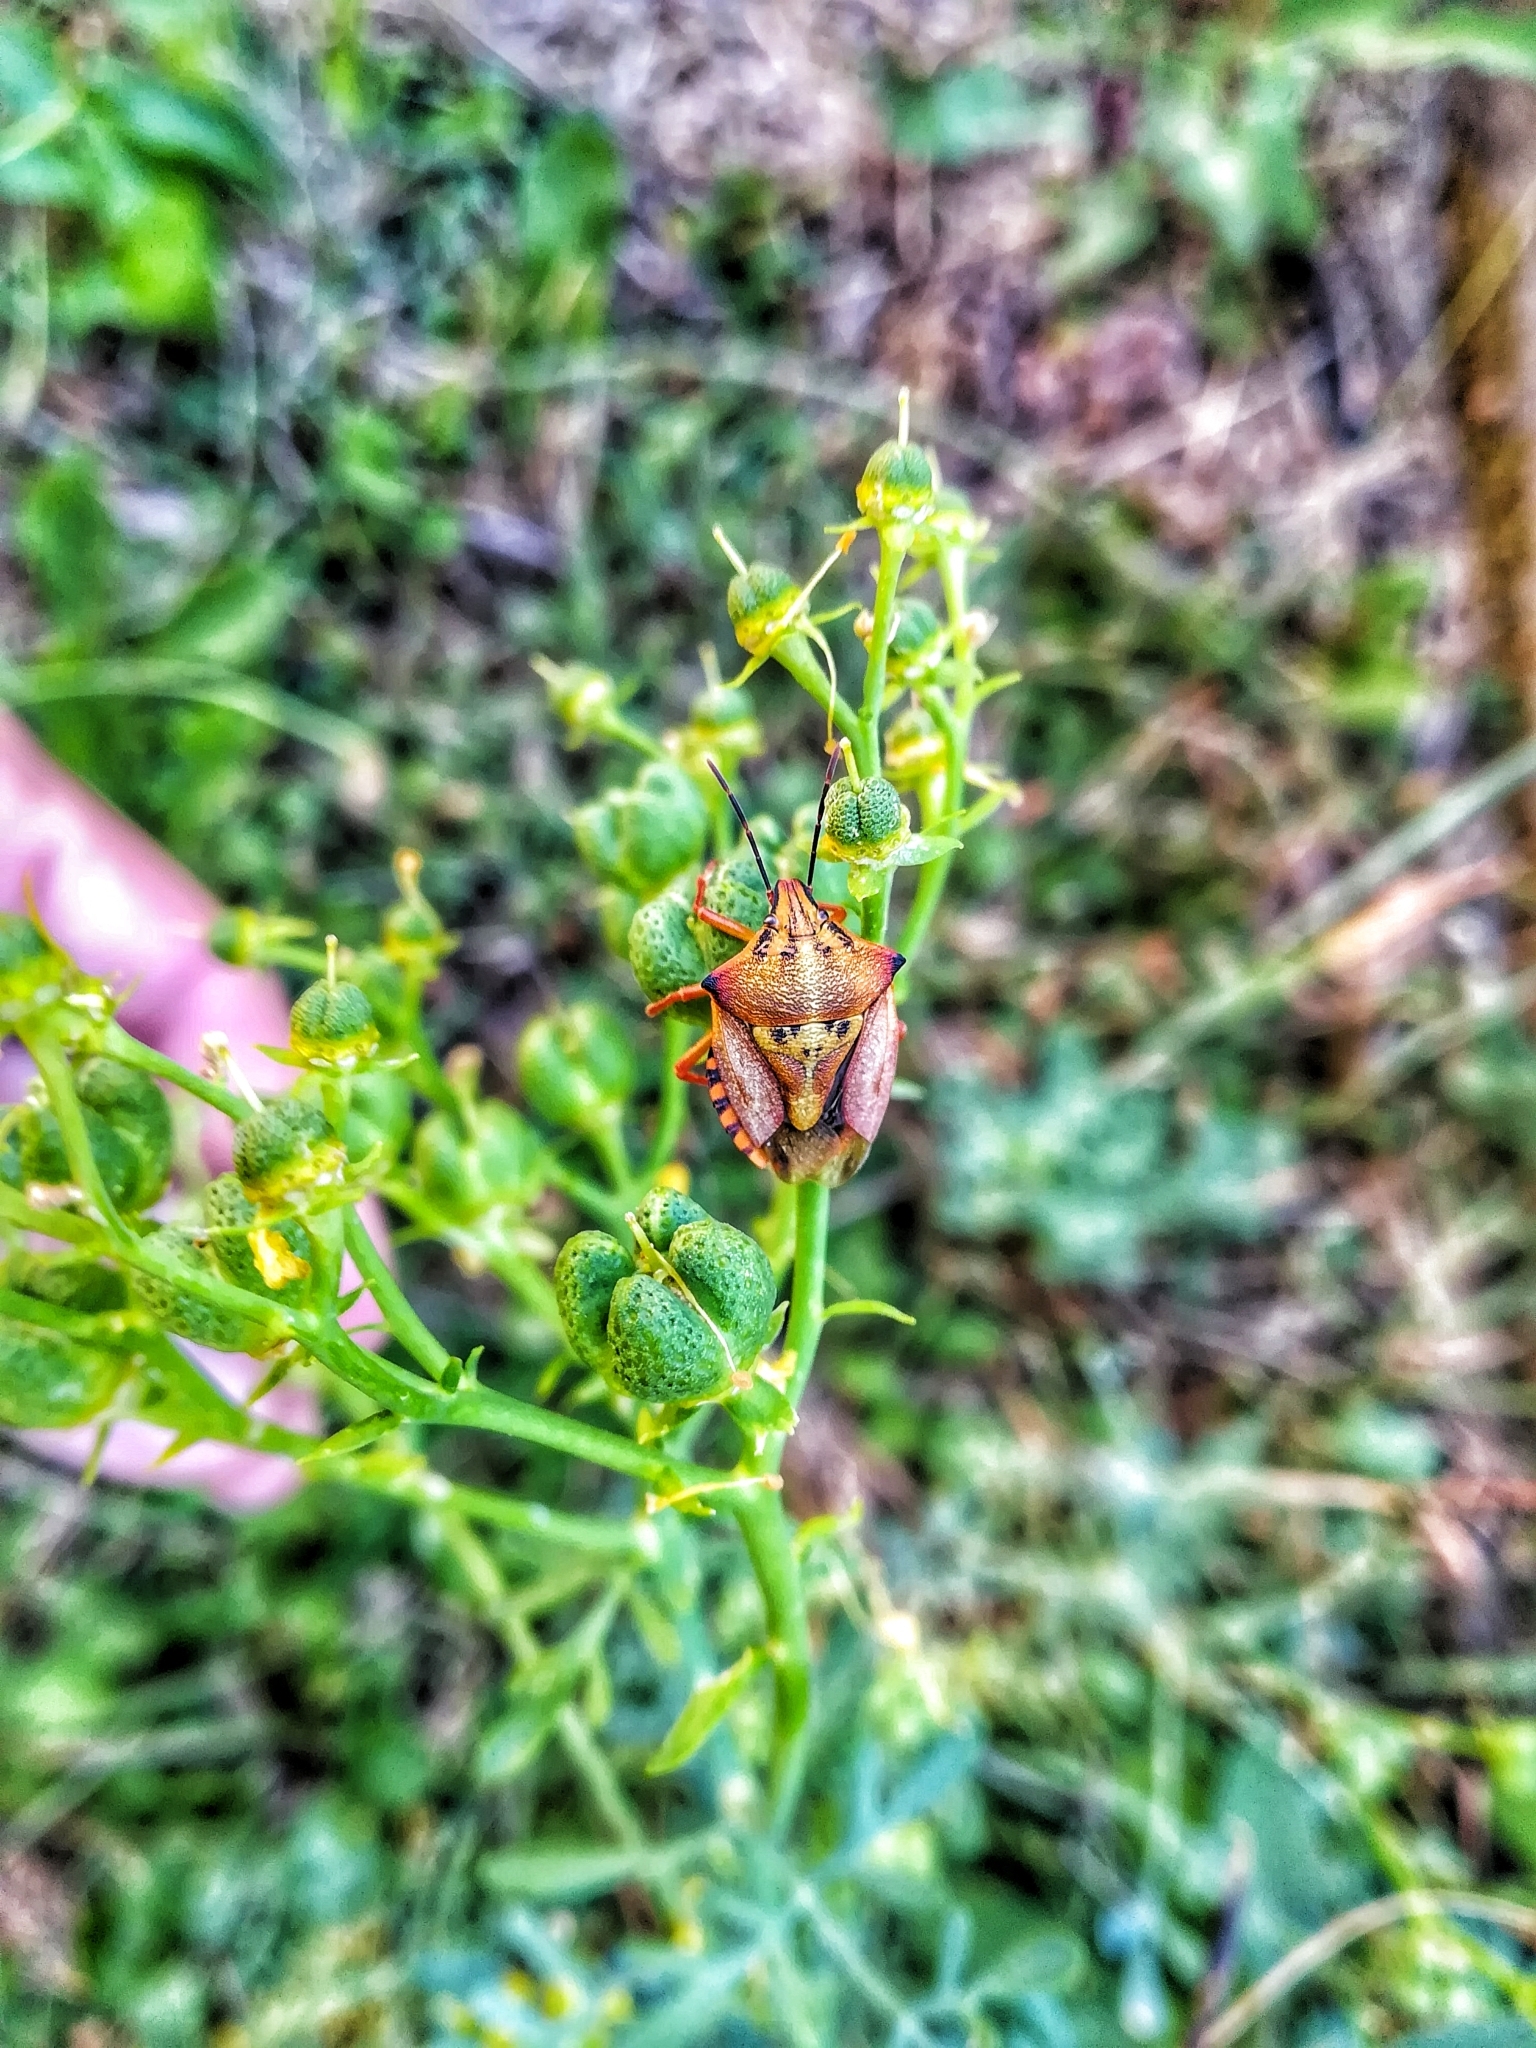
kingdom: Animalia
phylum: Arthropoda
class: Insecta
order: Hemiptera
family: Pentatomidae
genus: Carpocoris
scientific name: Carpocoris mediterraneus
